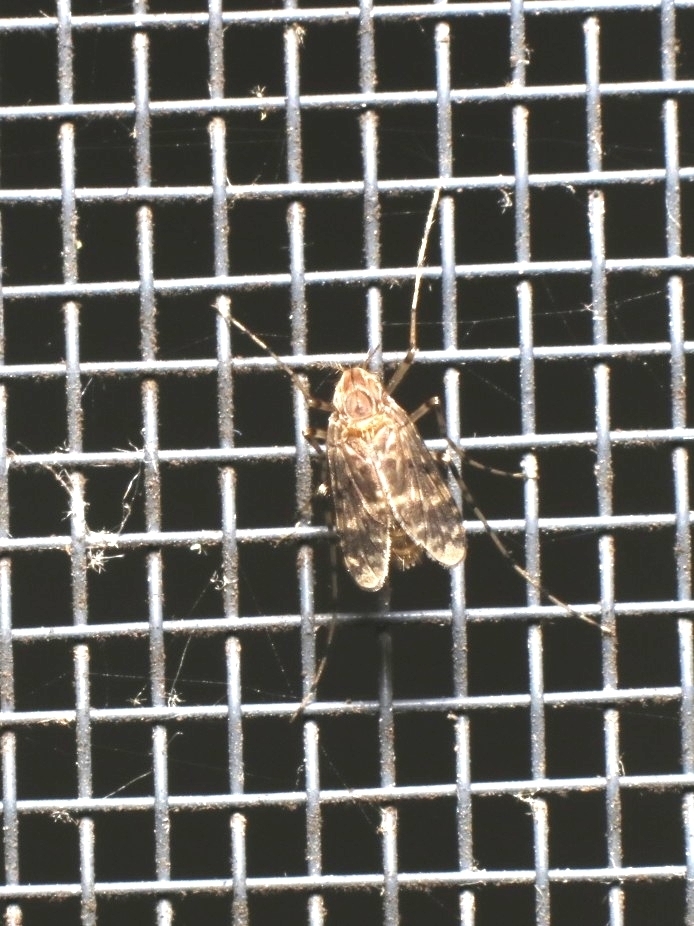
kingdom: Animalia
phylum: Arthropoda
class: Insecta
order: Diptera
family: Chironomidae
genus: Ablabesmyia
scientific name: Ablabesmyia annulata
